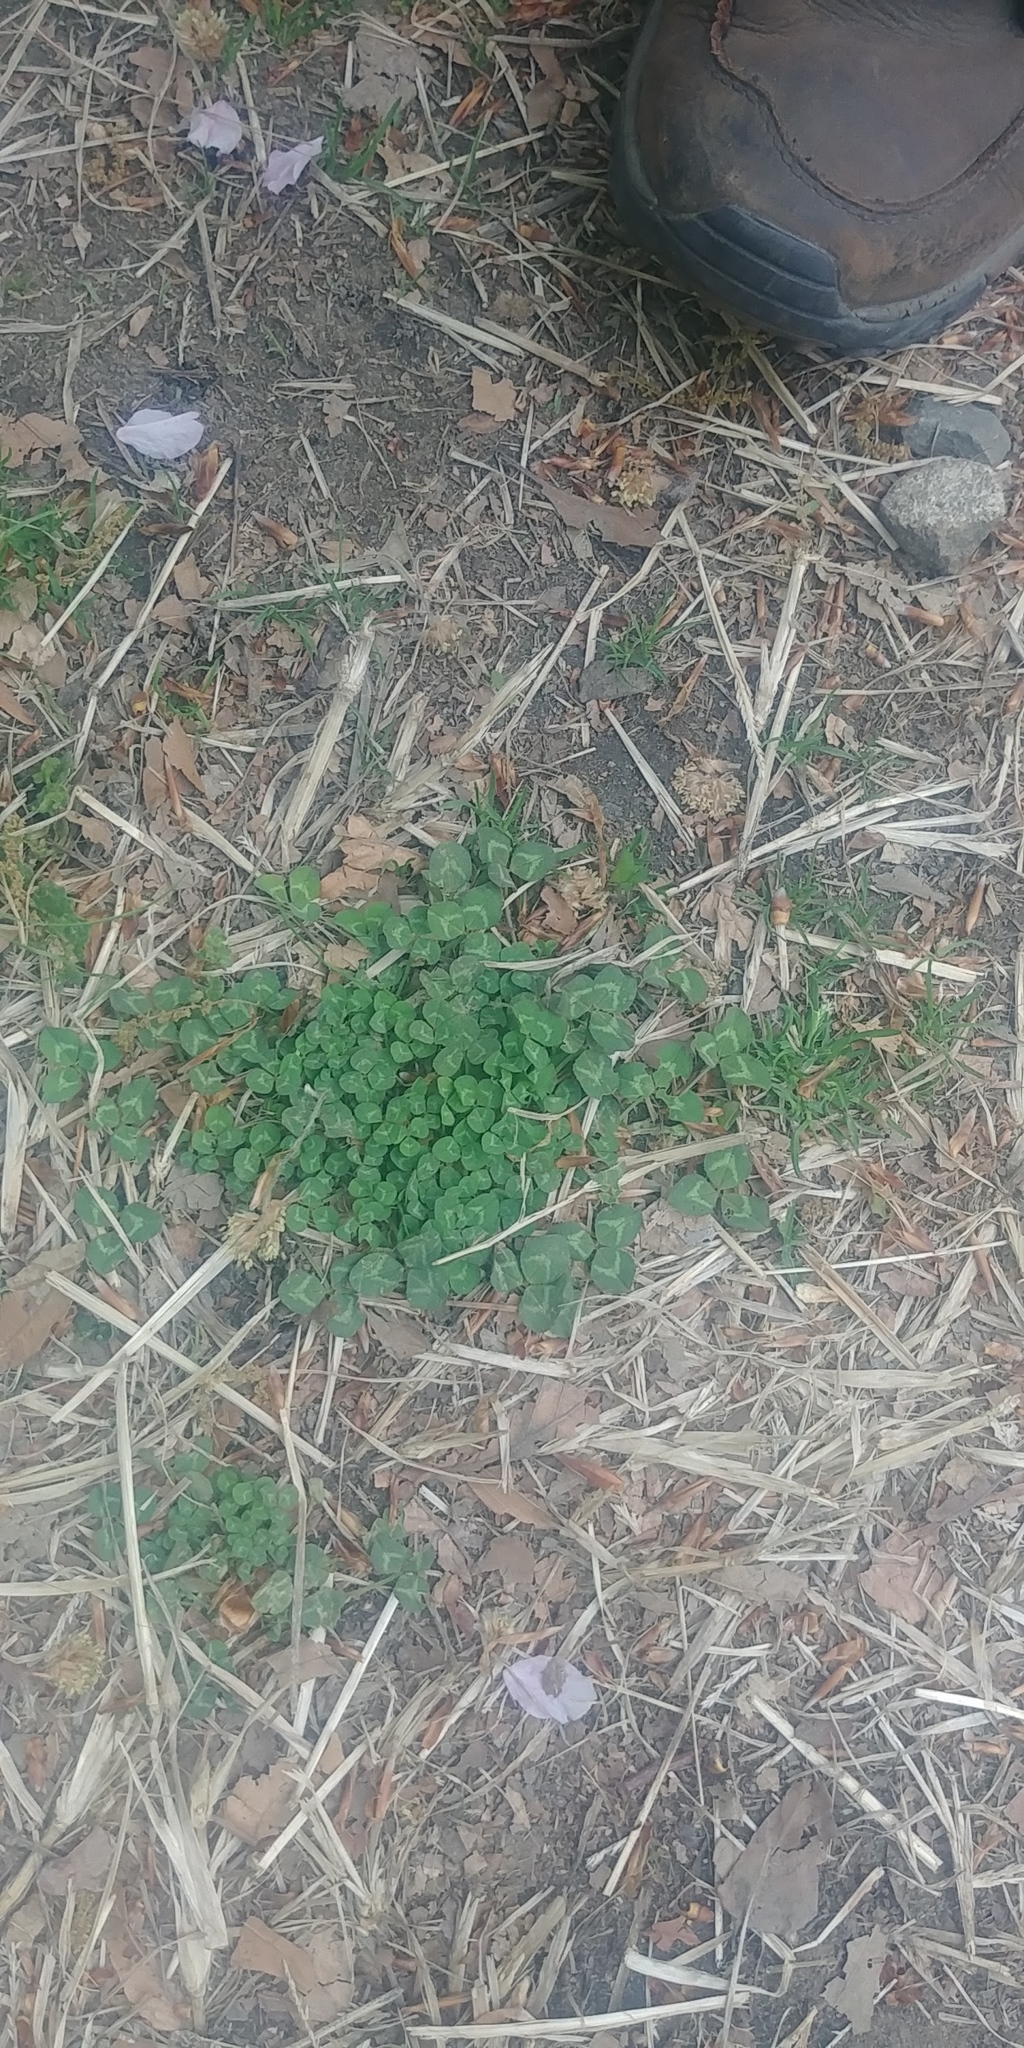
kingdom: Plantae
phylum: Tracheophyta
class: Magnoliopsida
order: Fabales
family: Fabaceae
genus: Trifolium
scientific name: Trifolium repens
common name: White clover
